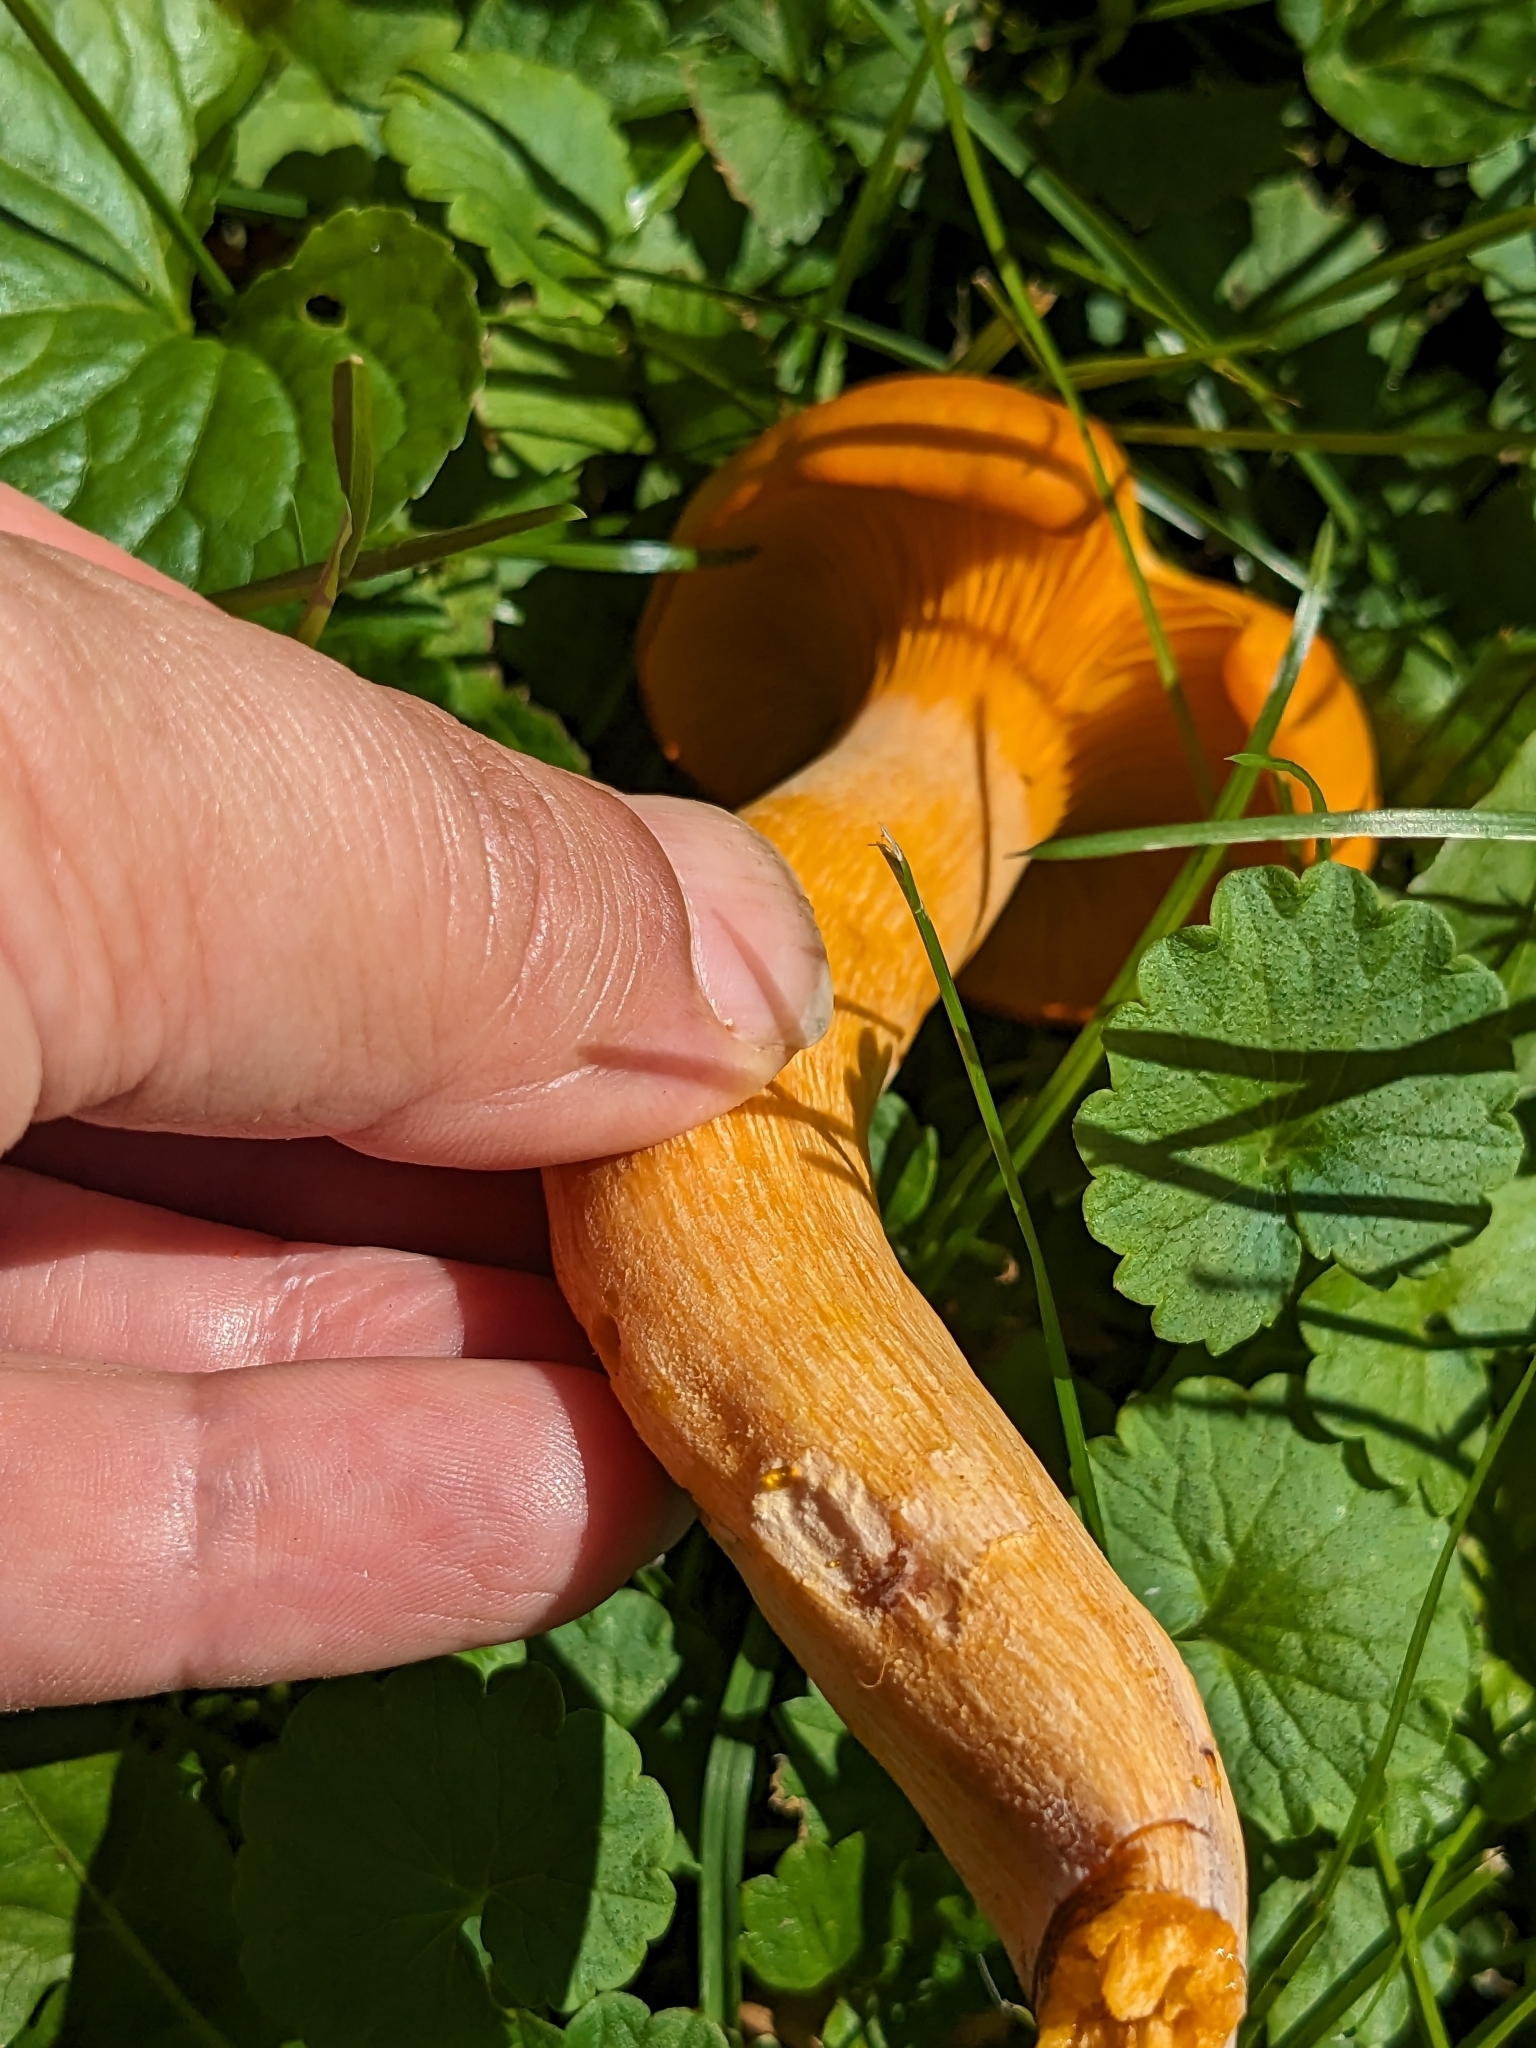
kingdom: Fungi
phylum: Basidiomycota
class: Agaricomycetes
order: Agaricales
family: Omphalotaceae
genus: Omphalotus
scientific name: Omphalotus illudens
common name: Jack o lantern
